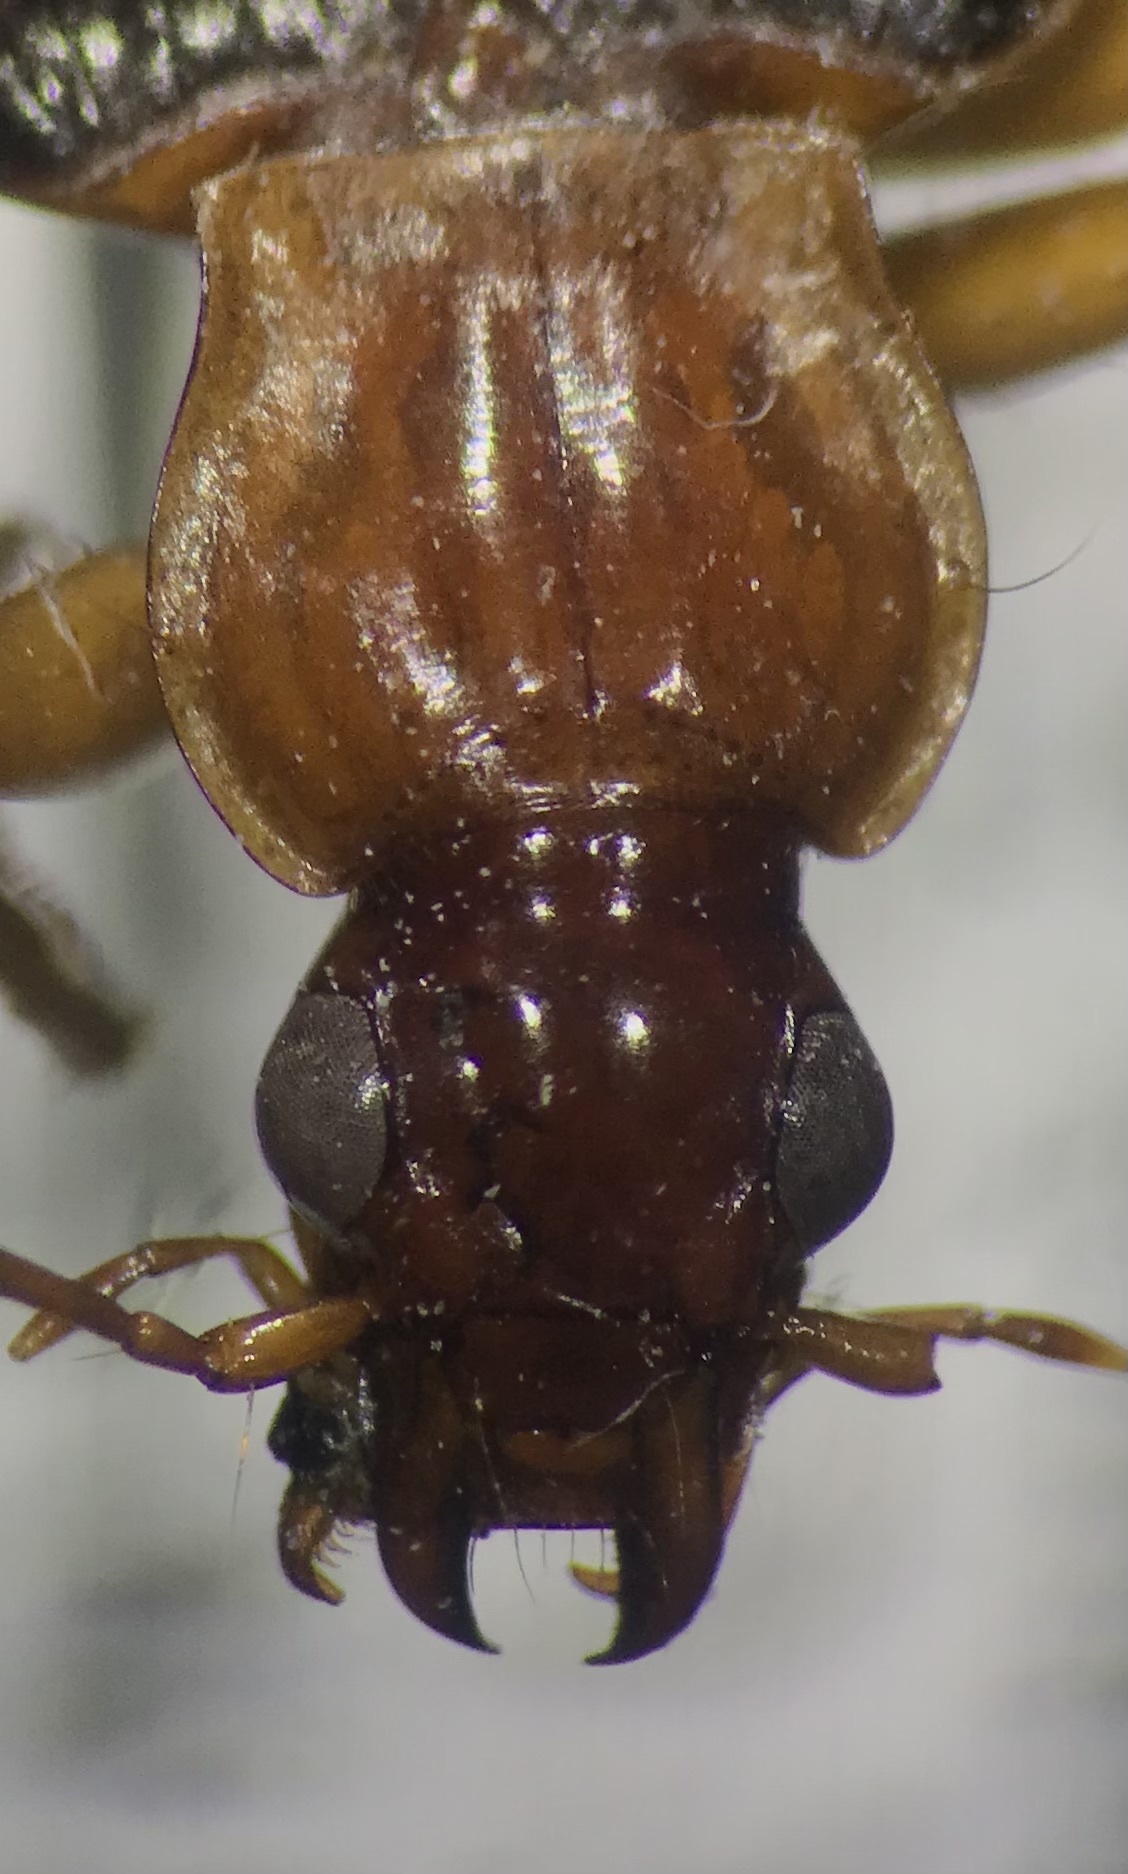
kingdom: Animalia
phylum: Arthropoda
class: Insecta
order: Coleoptera
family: Carabidae
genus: Platynus
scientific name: Platynus brunneomarginatus
